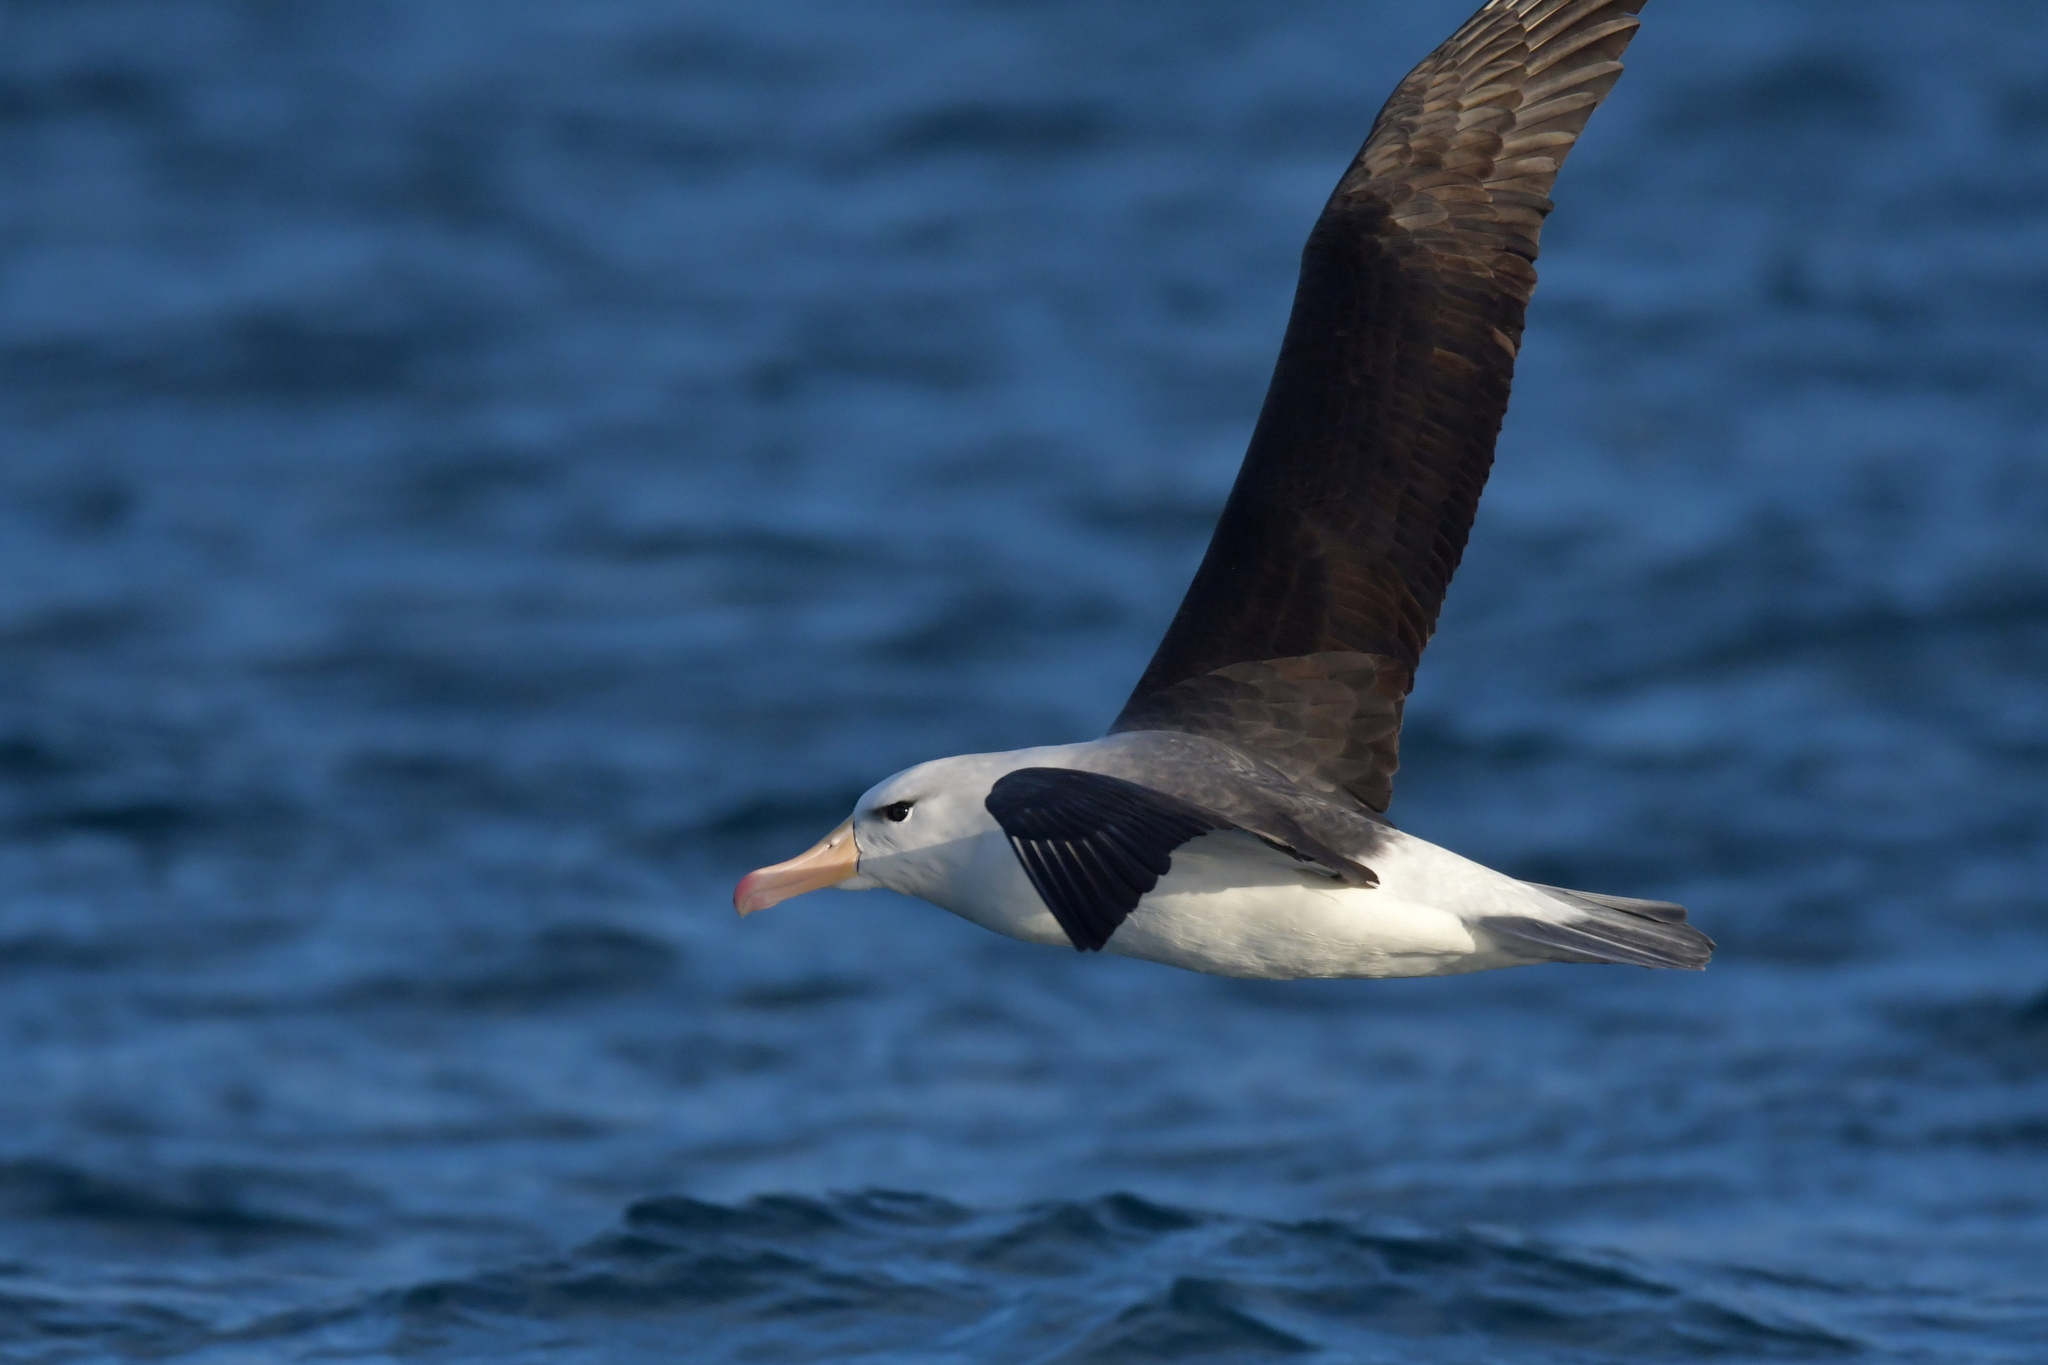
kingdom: Animalia
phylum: Chordata
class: Aves
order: Procellariiformes
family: Diomedeidae
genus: Thalassarche
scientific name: Thalassarche melanophris
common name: Black-browed albatross
